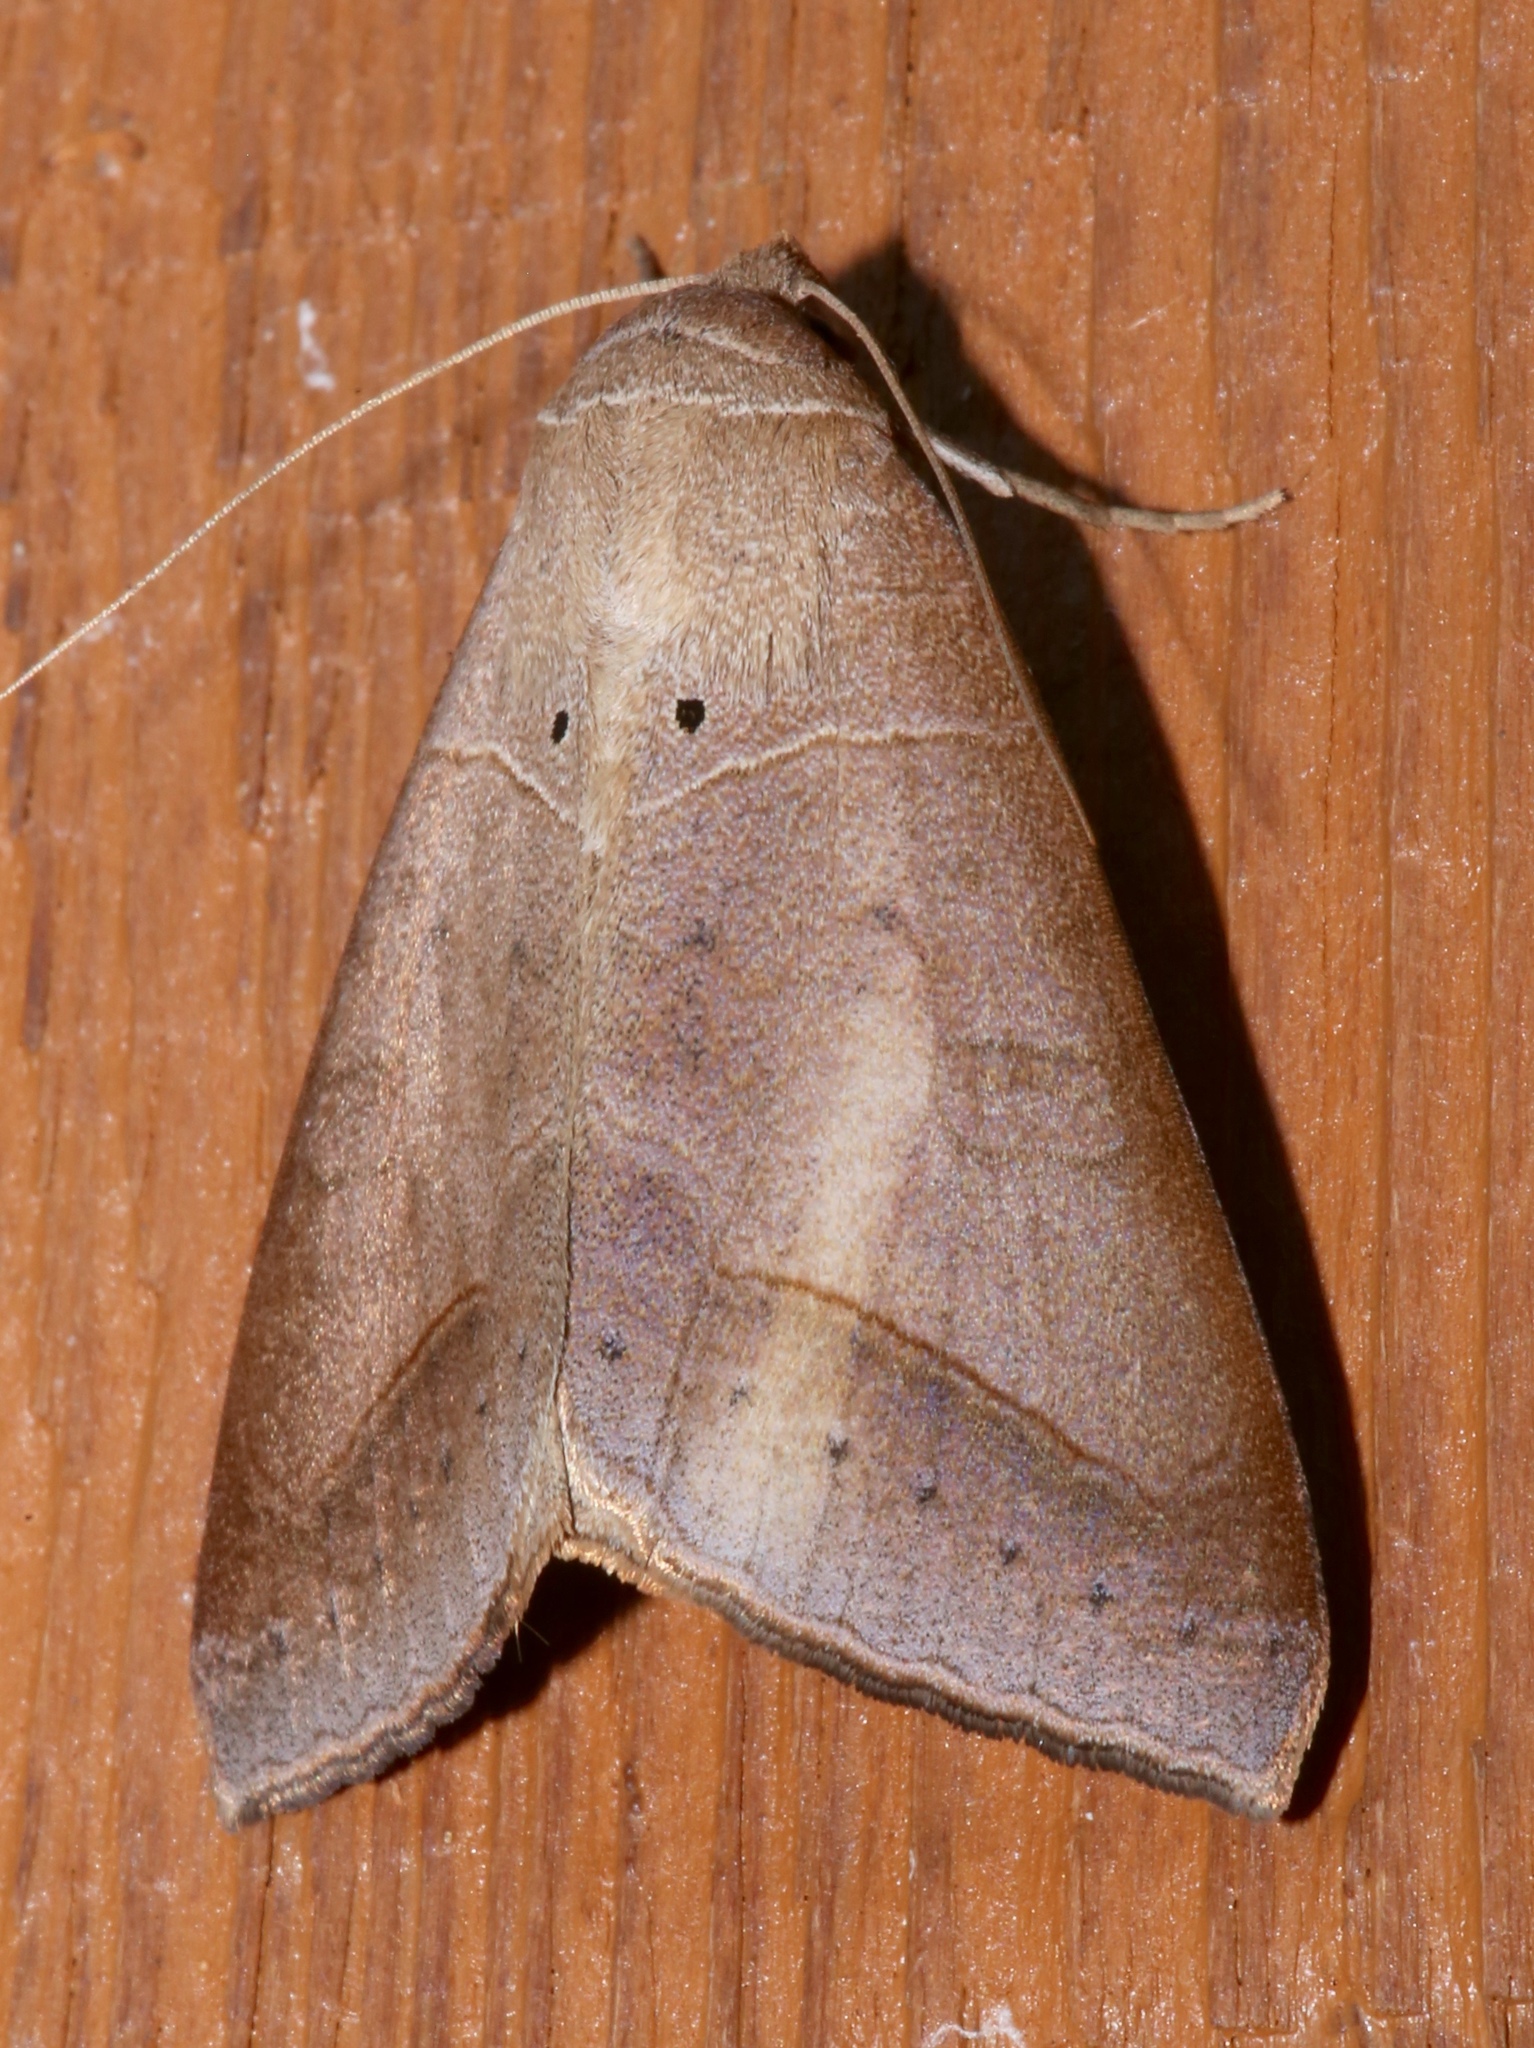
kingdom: Animalia
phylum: Arthropoda
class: Insecta
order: Lepidoptera
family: Erebidae
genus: Mocis
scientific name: Mocis marcida
